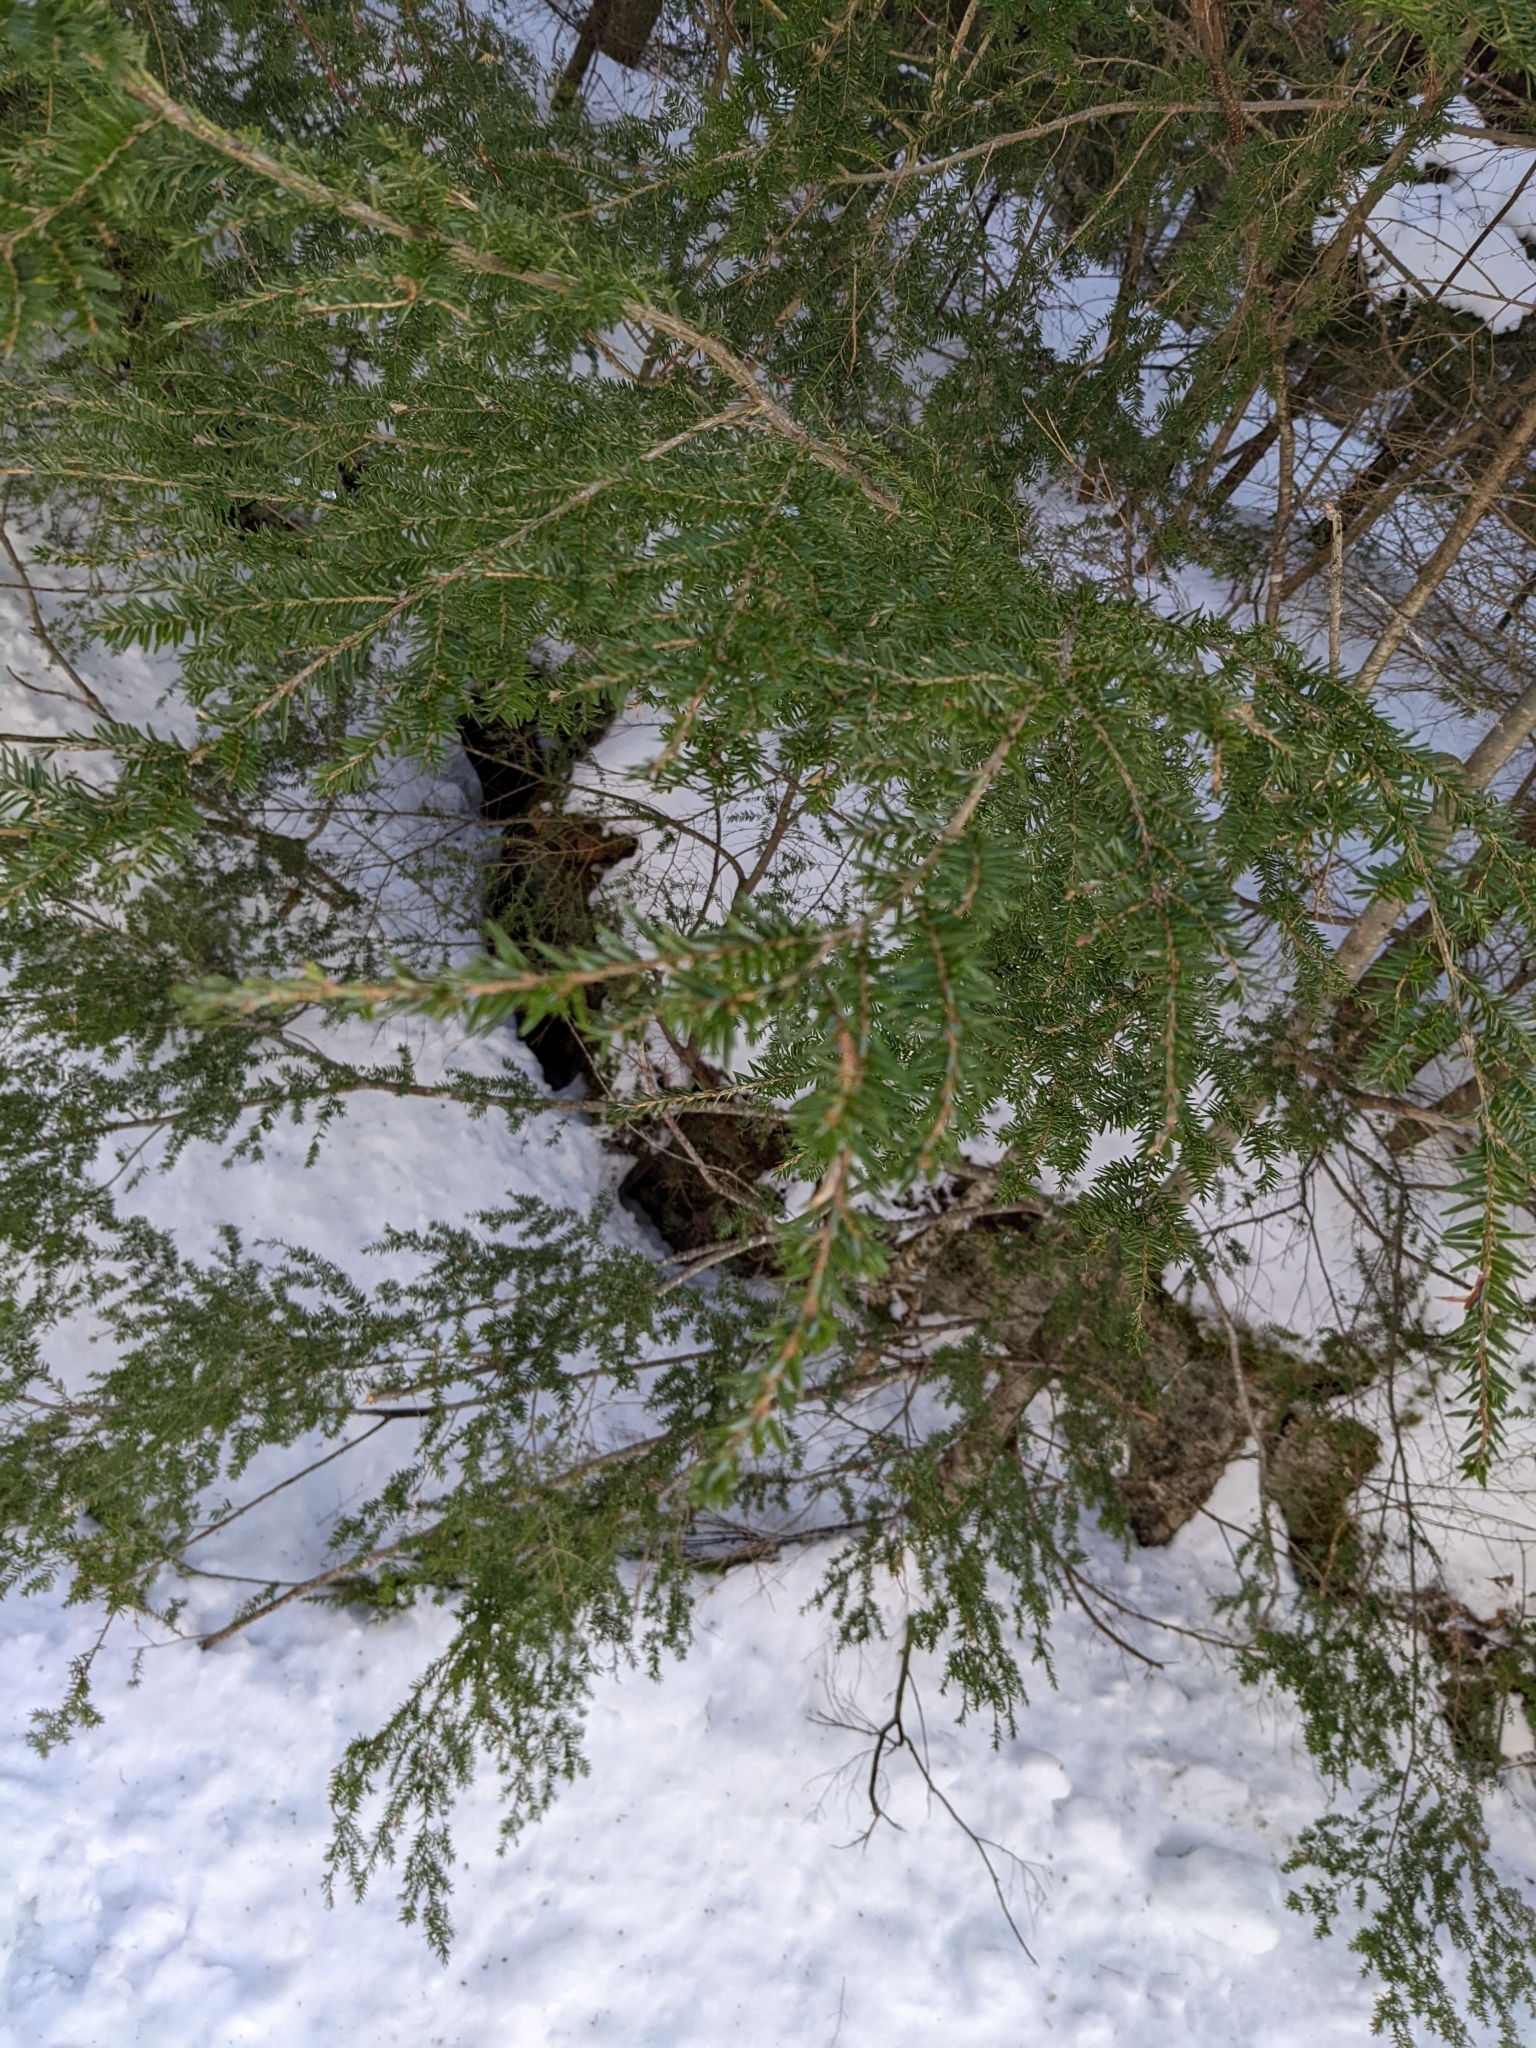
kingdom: Plantae
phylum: Tracheophyta
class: Pinopsida
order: Pinales
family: Pinaceae
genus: Tsuga
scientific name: Tsuga canadensis
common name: Eastern hemlock
